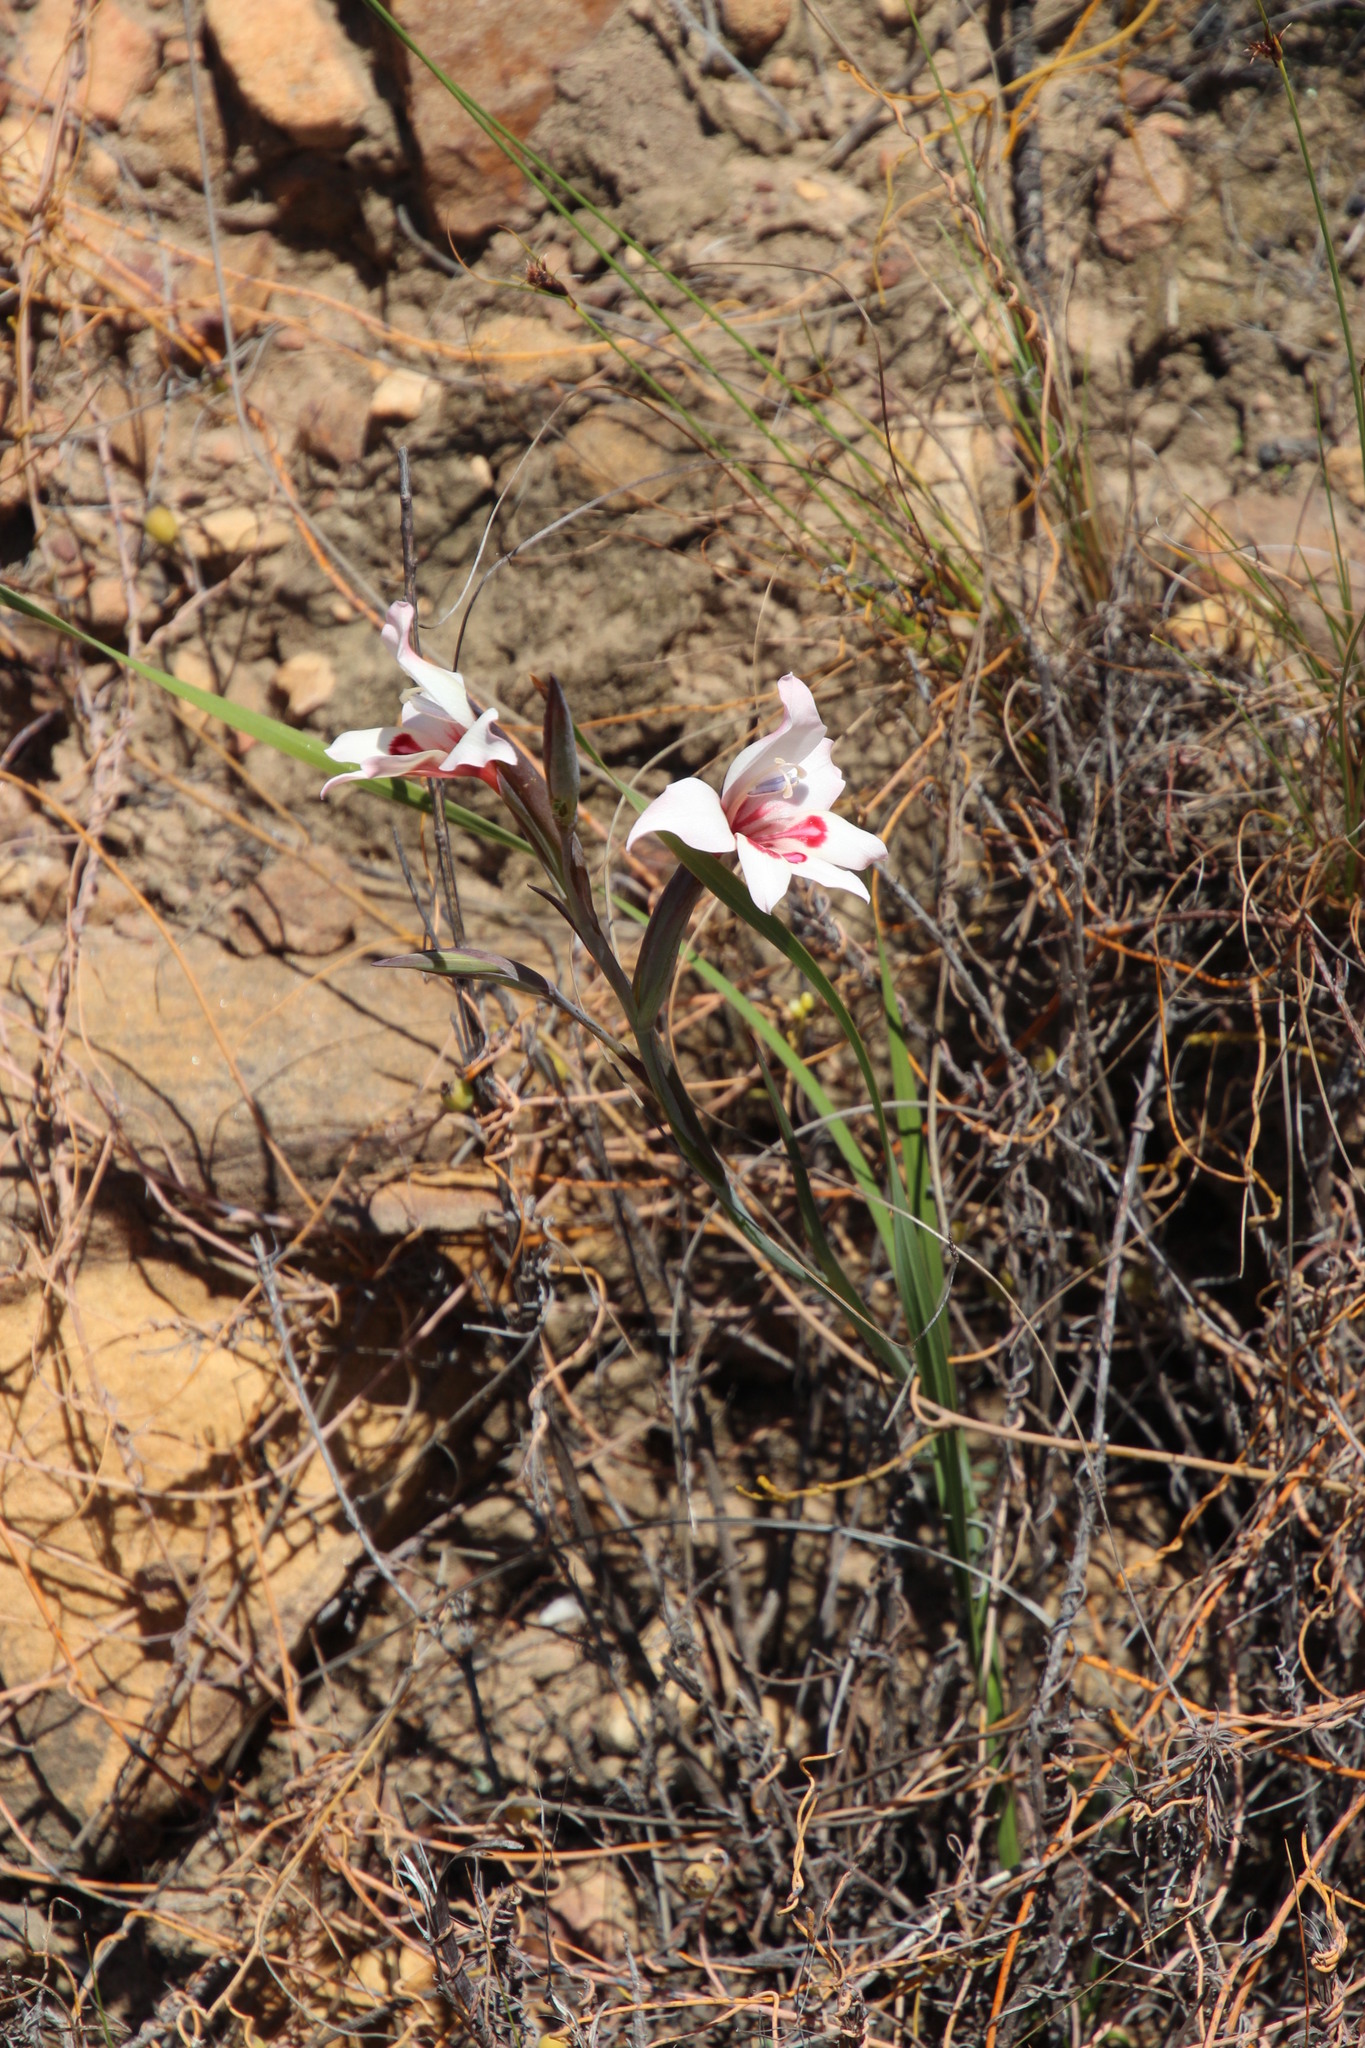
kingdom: Plantae
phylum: Tracheophyta
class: Liliopsida
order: Asparagales
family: Iridaceae
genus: Gladiolus
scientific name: Gladiolus carneus
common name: Painted-lady
